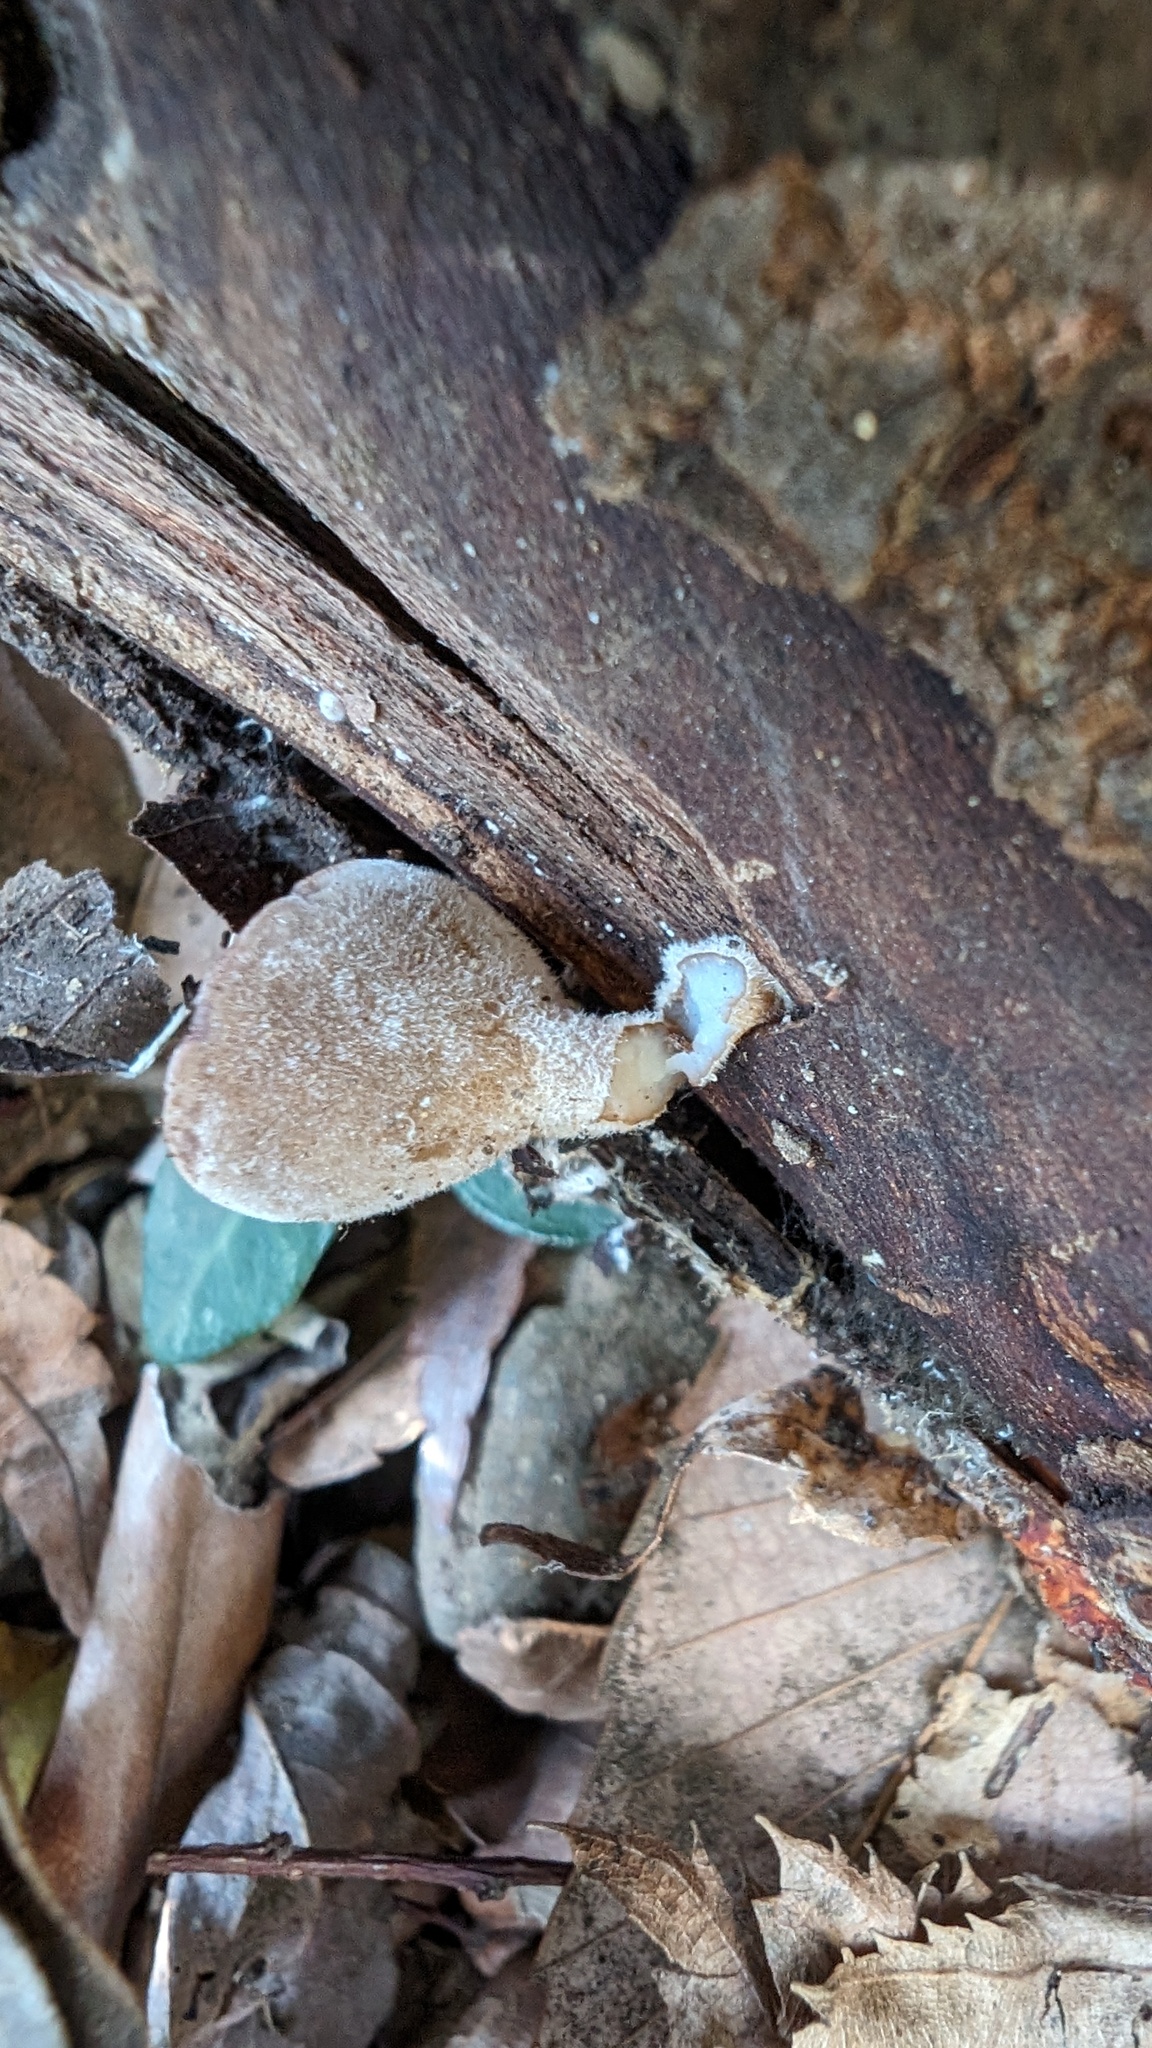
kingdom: Fungi
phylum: Basidiomycota
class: Agaricomycetes
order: Auriculariales
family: Auriculariaceae
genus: Auricularia
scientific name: Auricularia nigricans
